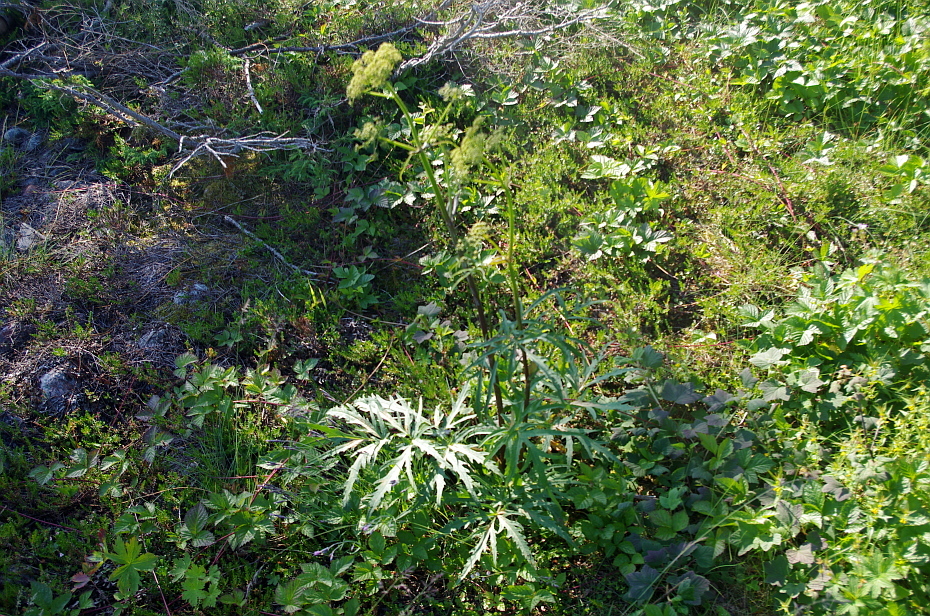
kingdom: Plantae
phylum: Tracheophyta
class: Magnoliopsida
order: Apiales
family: Apiaceae
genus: Heracleum
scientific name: Heracleum sphondylium
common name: Hogweed
